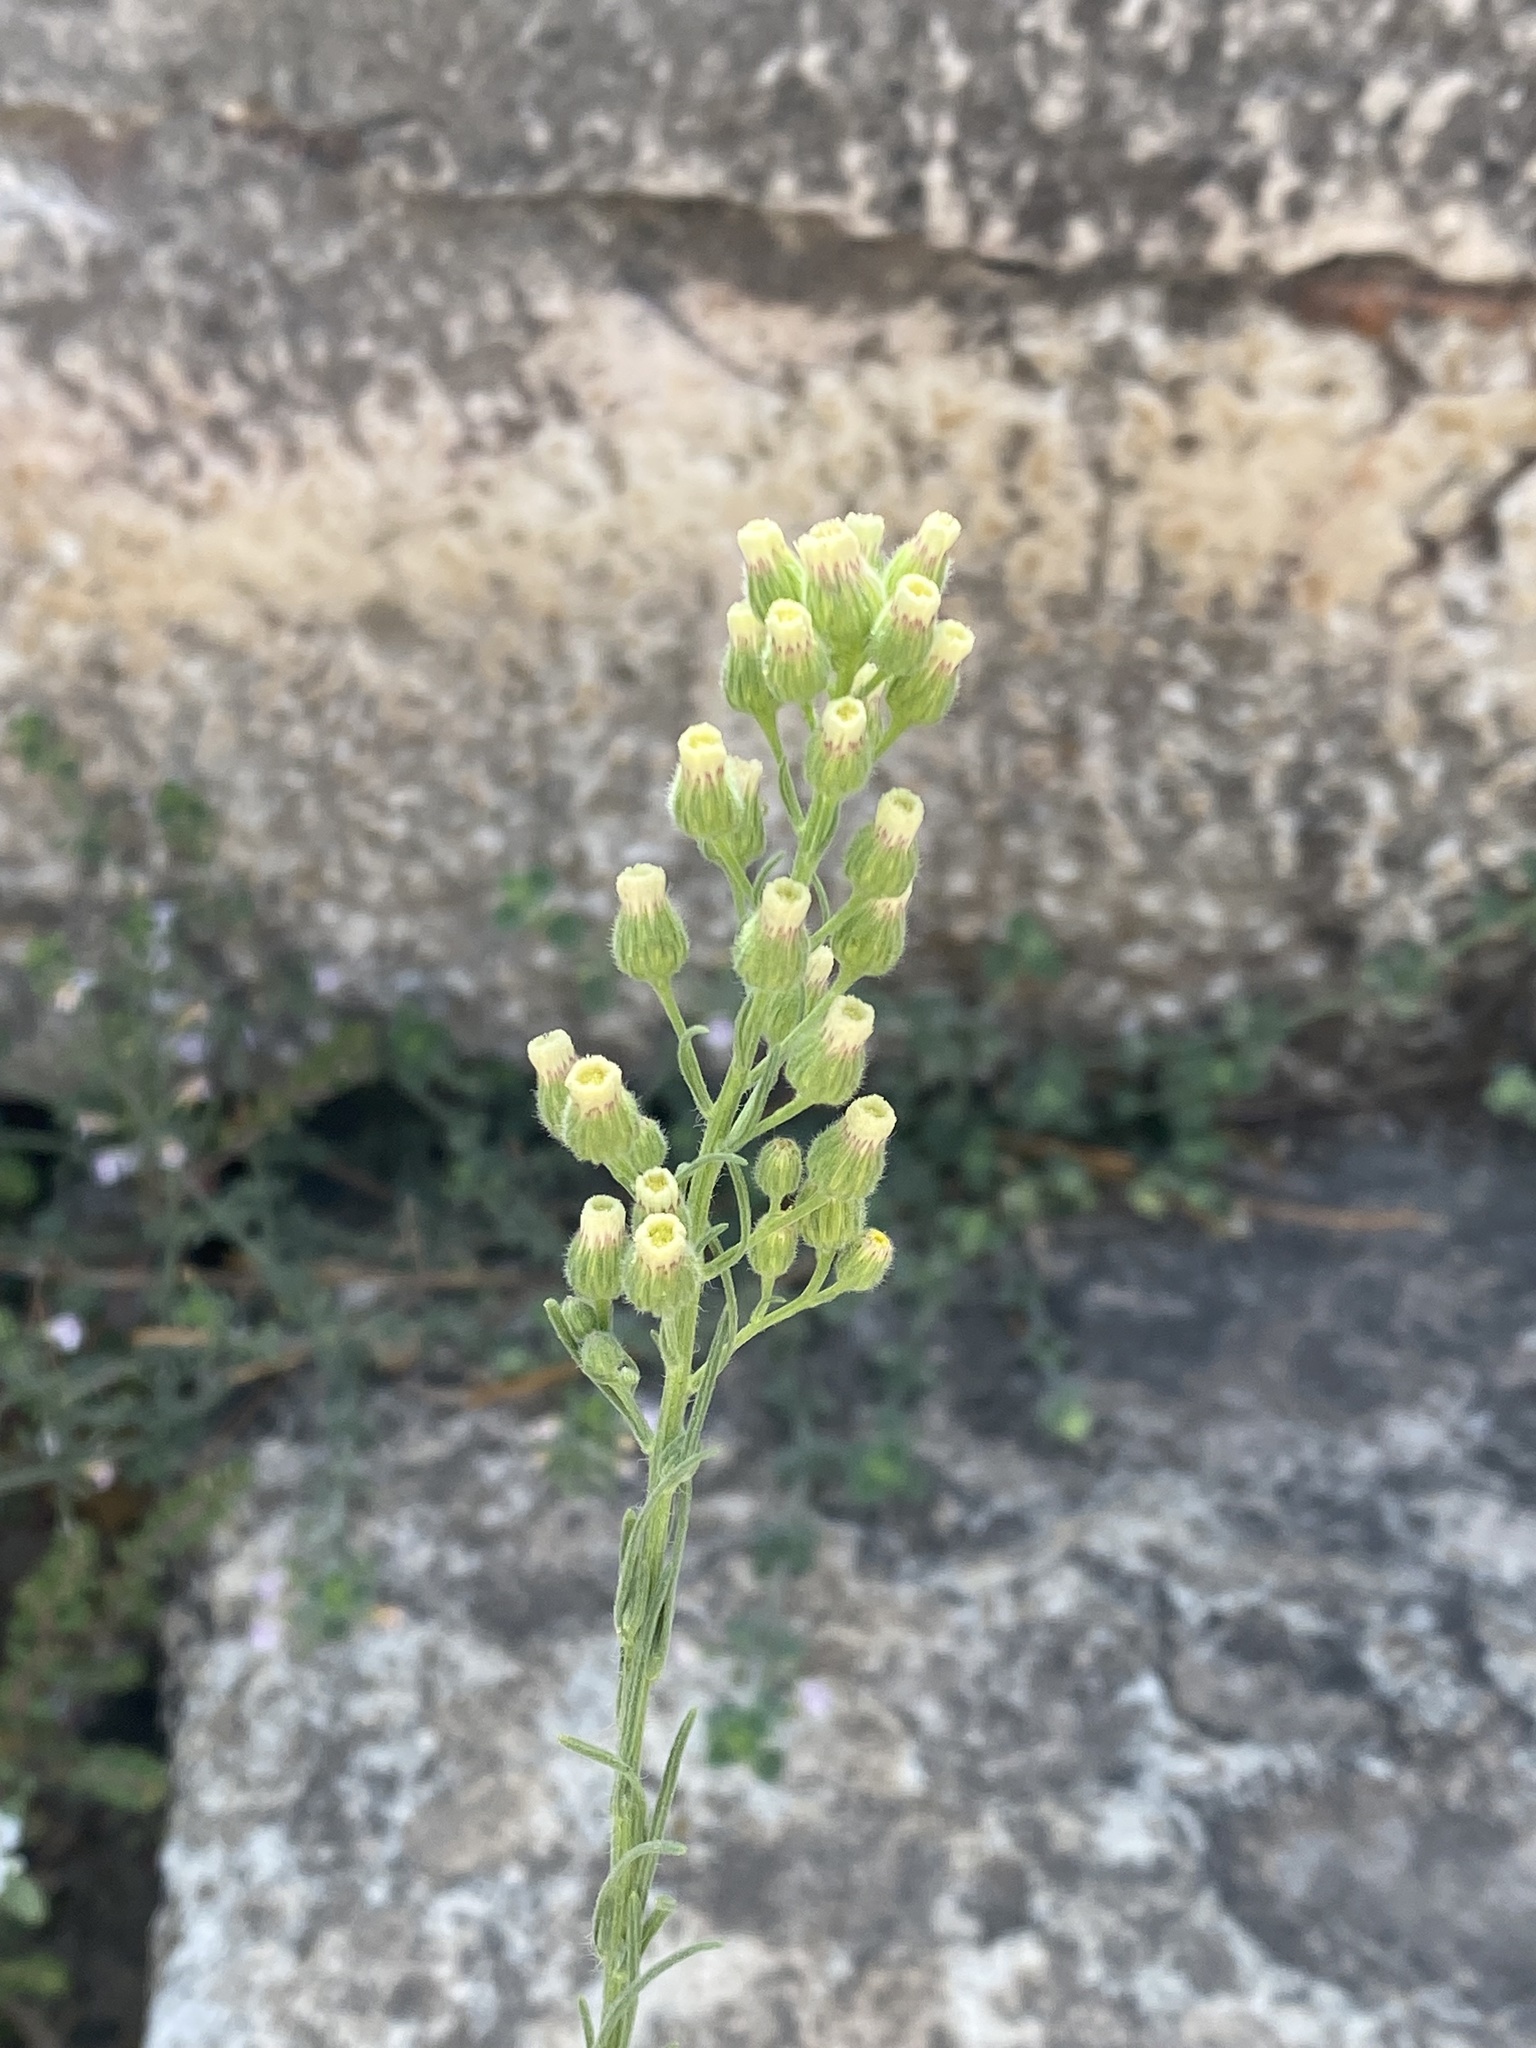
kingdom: Plantae
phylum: Tracheophyta
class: Magnoliopsida
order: Asterales
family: Asteraceae
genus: Erigeron
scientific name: Erigeron bonariensis
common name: Argentine fleabane
